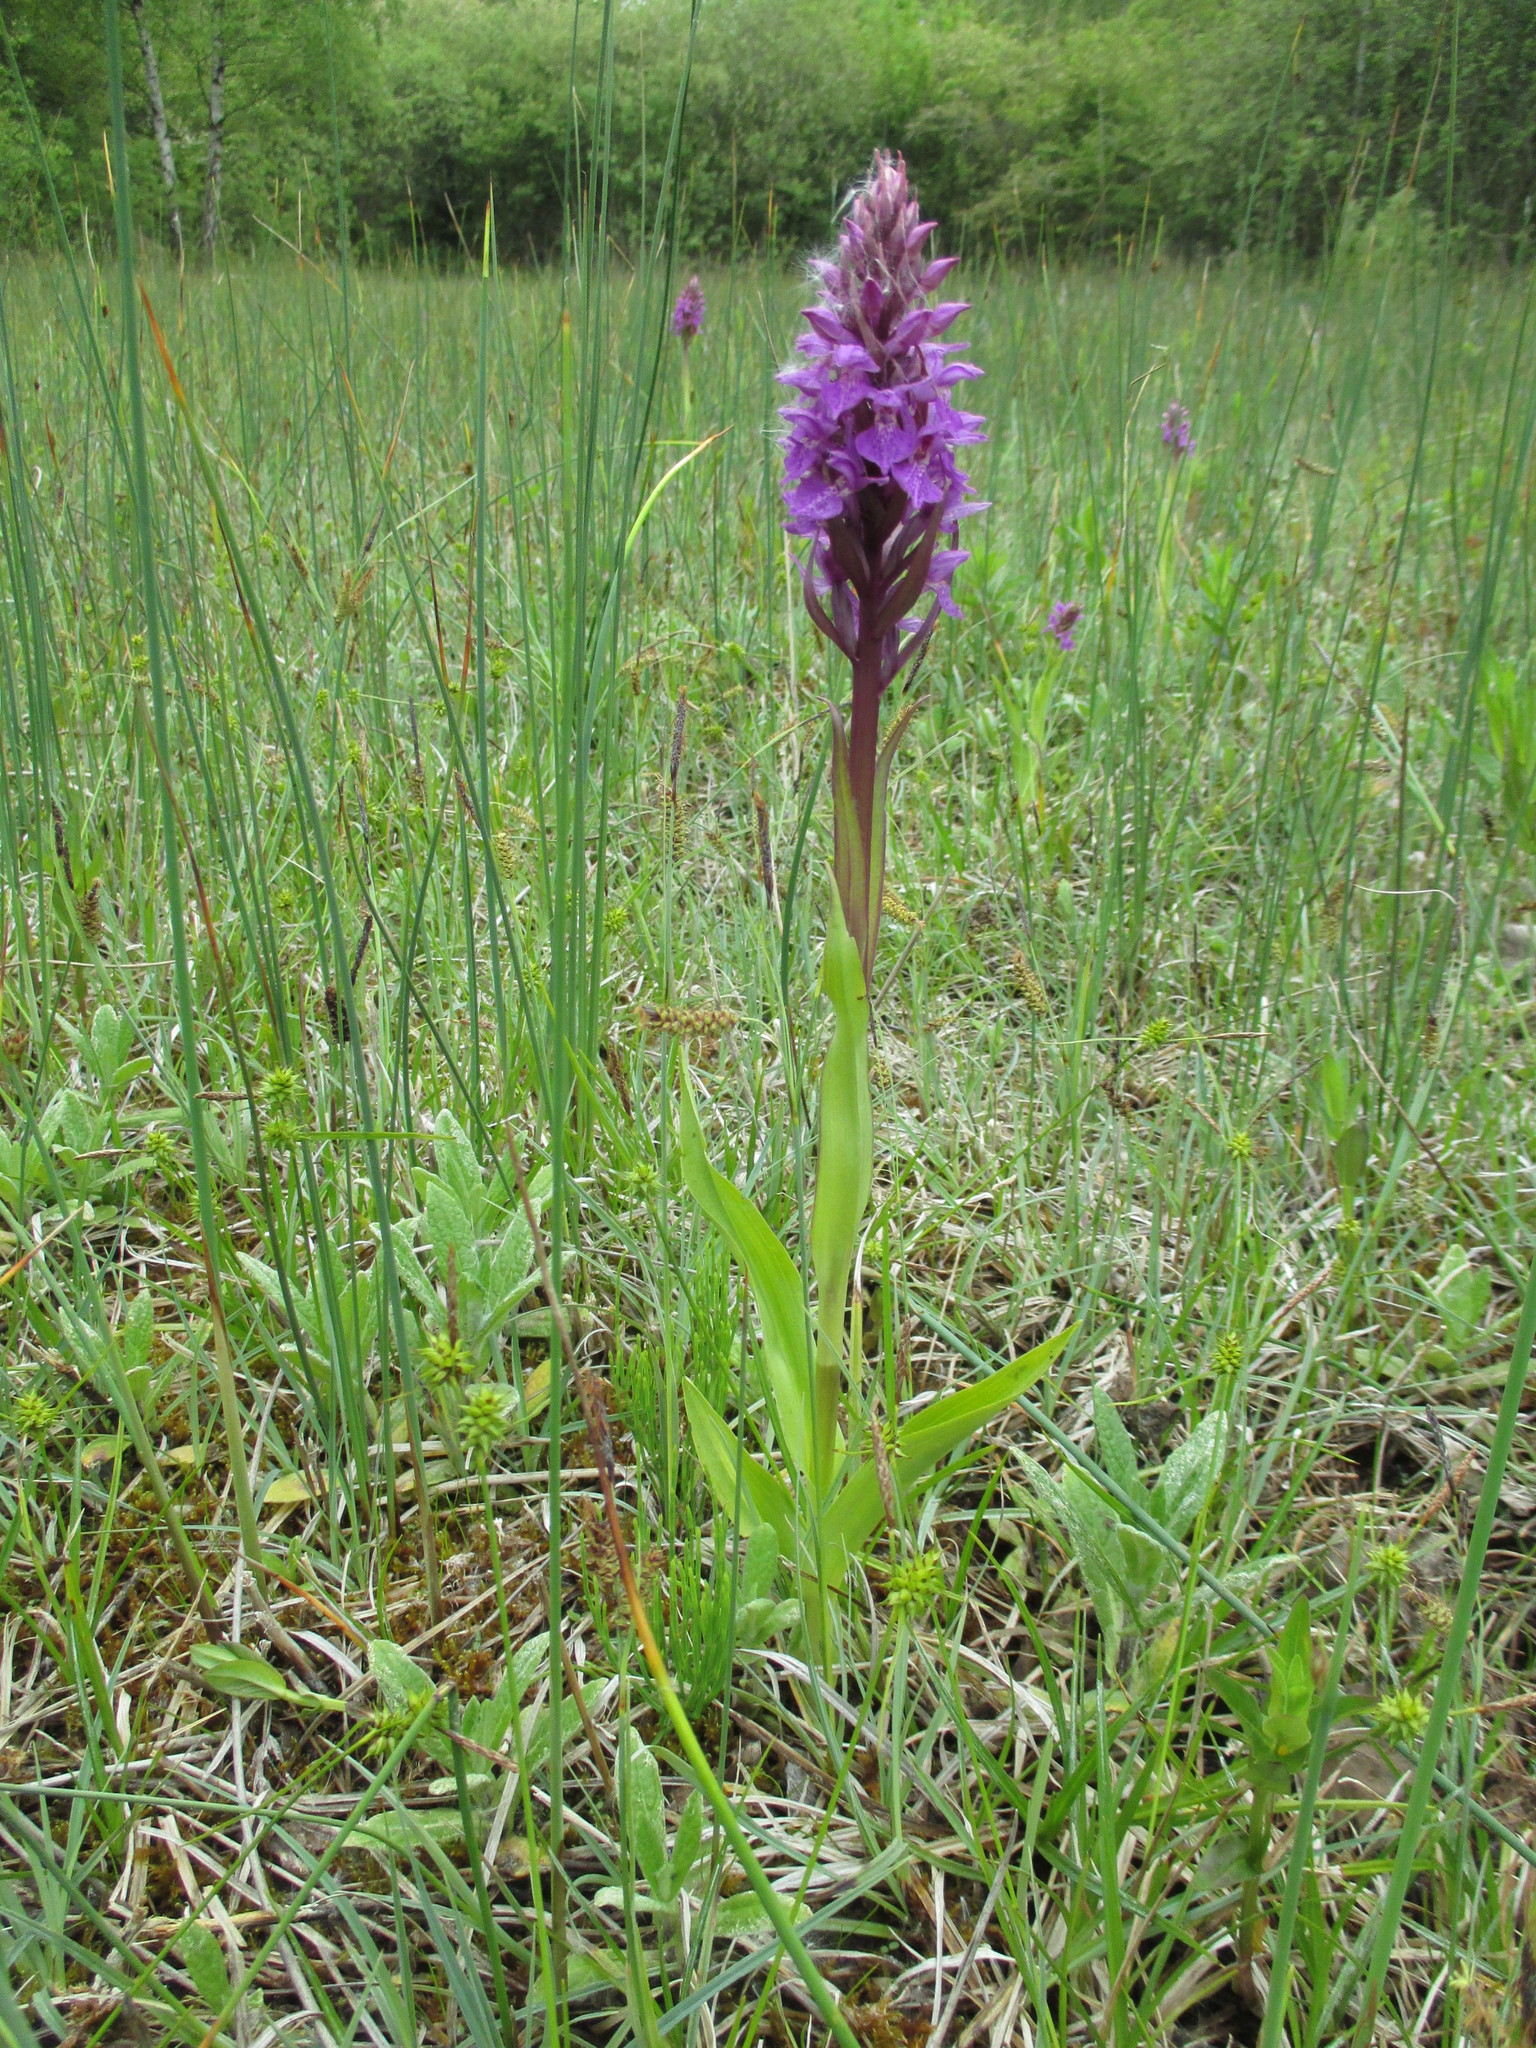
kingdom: Plantae
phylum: Tracheophyta
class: Liliopsida
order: Asparagales
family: Orchidaceae
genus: Dactylorhiza
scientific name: Dactylorhiza majalis
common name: Marsh orchid
